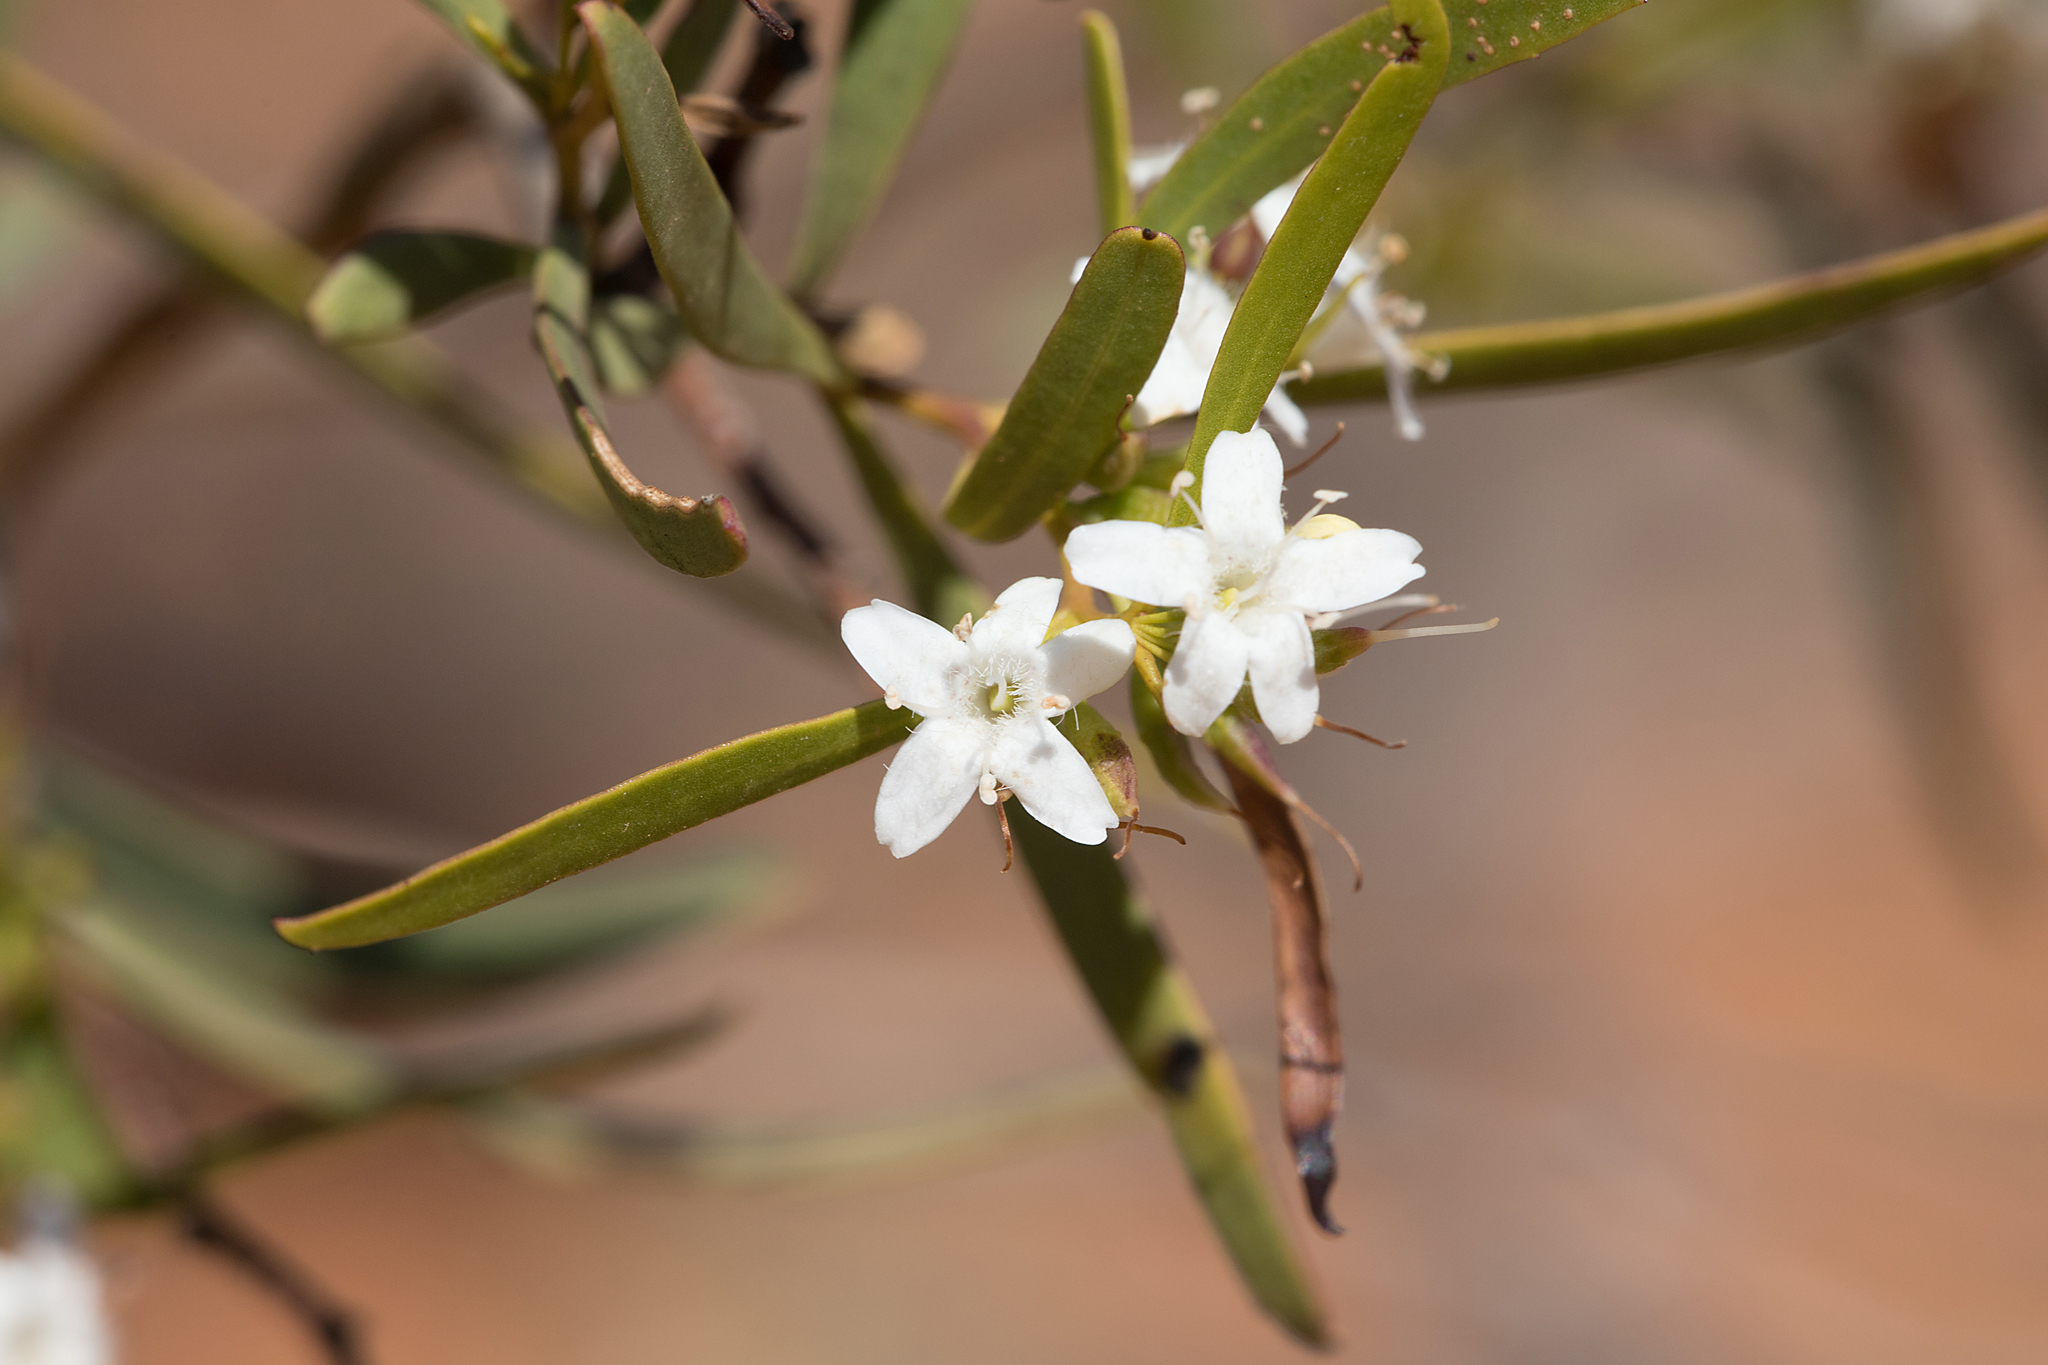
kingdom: Plantae
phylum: Tracheophyta
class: Magnoliopsida
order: Lamiales
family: Scrophulariaceae
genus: Myoporum
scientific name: Myoporum platycarpum
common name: Sugartree
